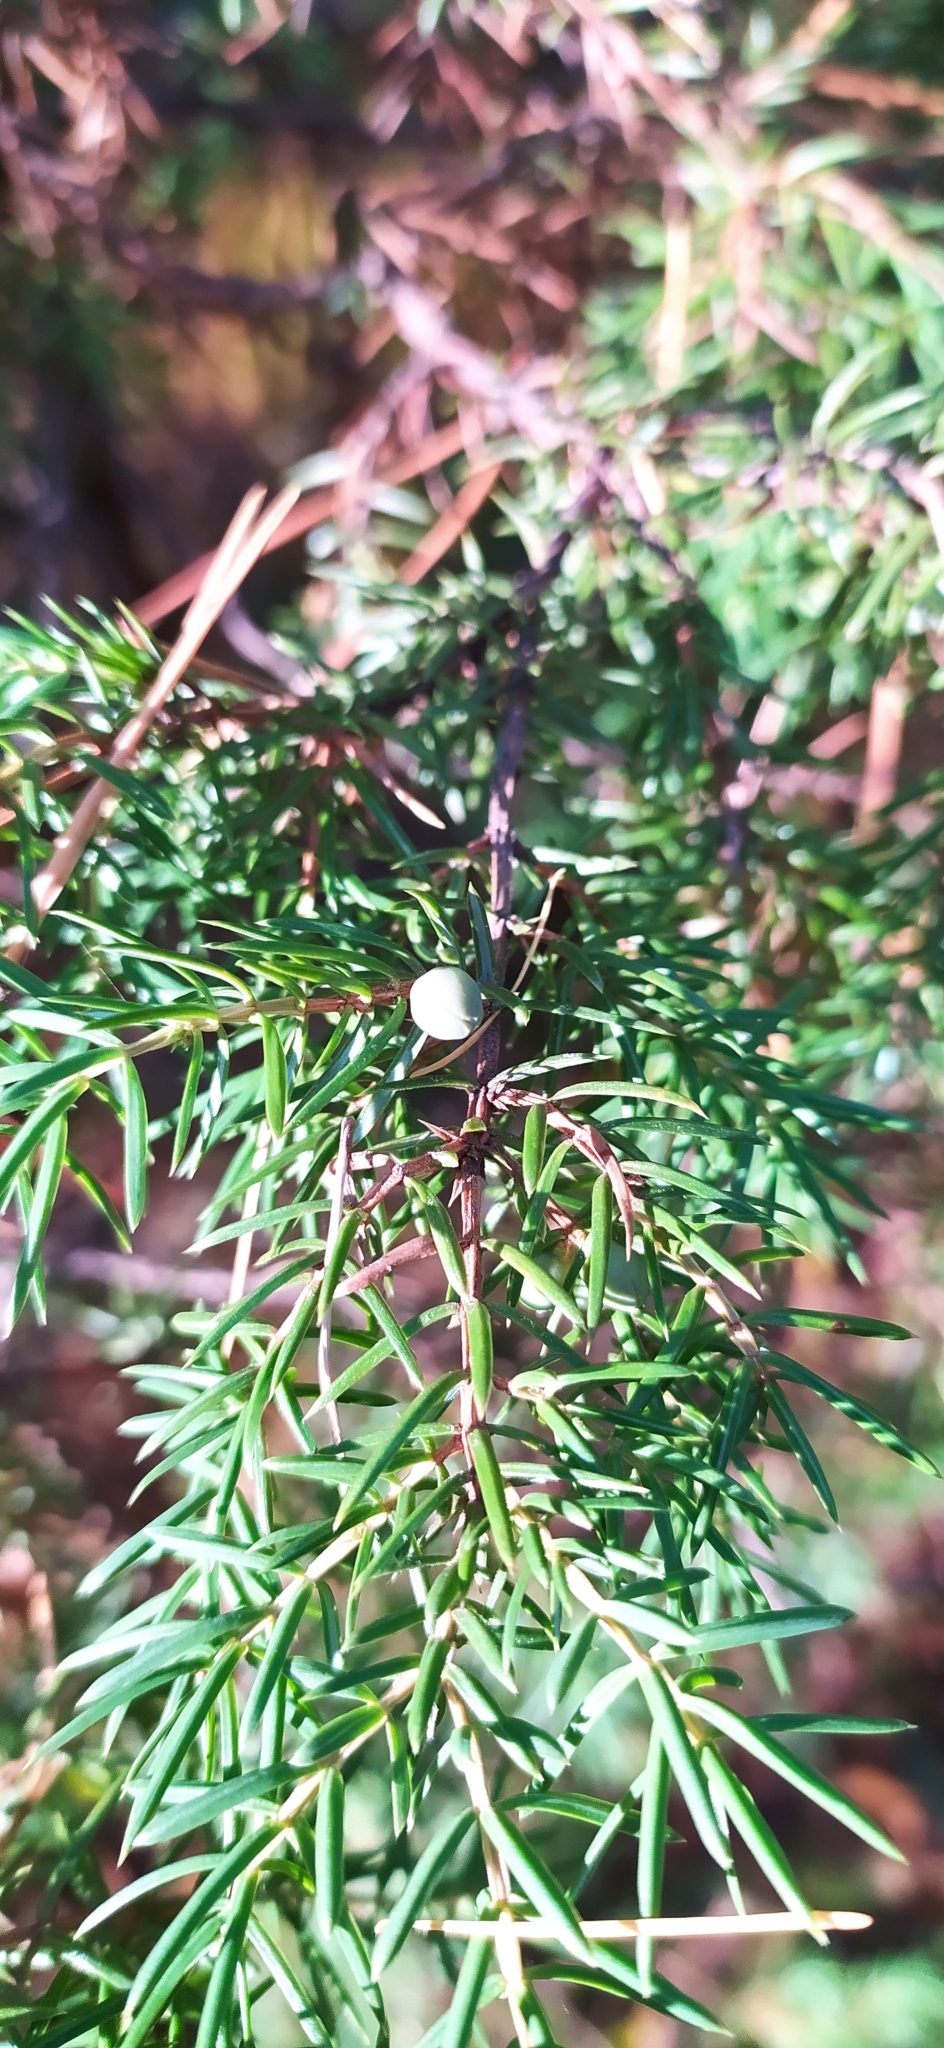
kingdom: Plantae
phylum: Tracheophyta
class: Pinopsida
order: Pinales
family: Cupressaceae
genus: Juniperus
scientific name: Juniperus communis
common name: Common juniper
